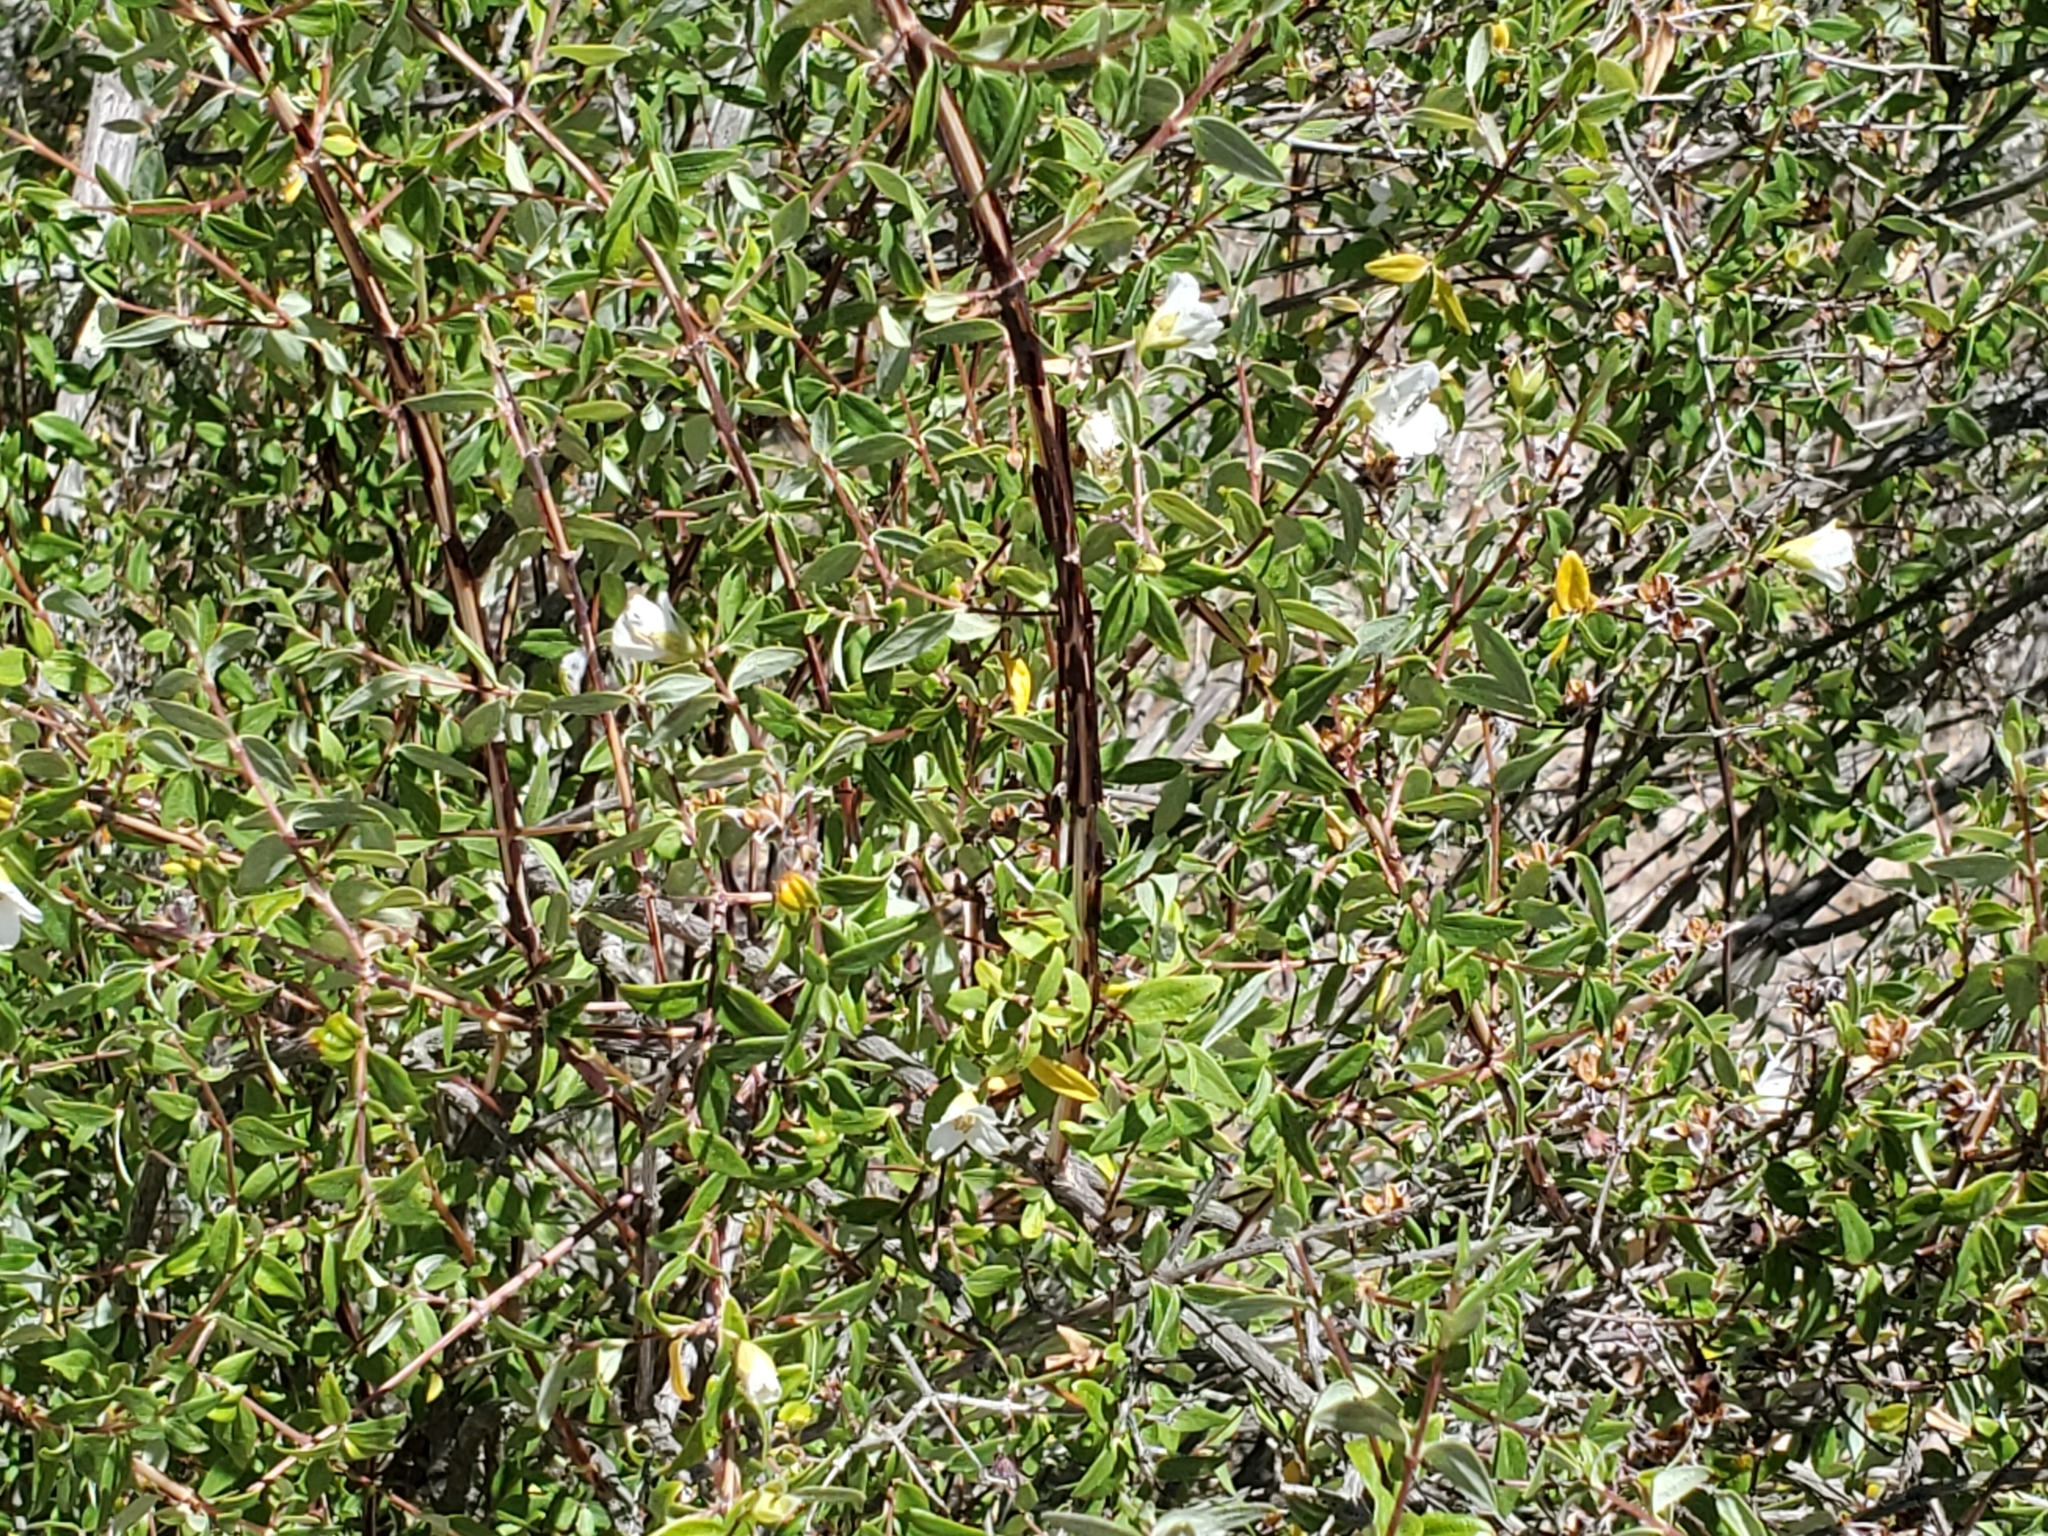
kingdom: Plantae
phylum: Tracheophyta
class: Magnoliopsida
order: Cornales
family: Hydrangeaceae
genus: Philadelphus
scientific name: Philadelphus microphyllus
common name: Desert mock orange
